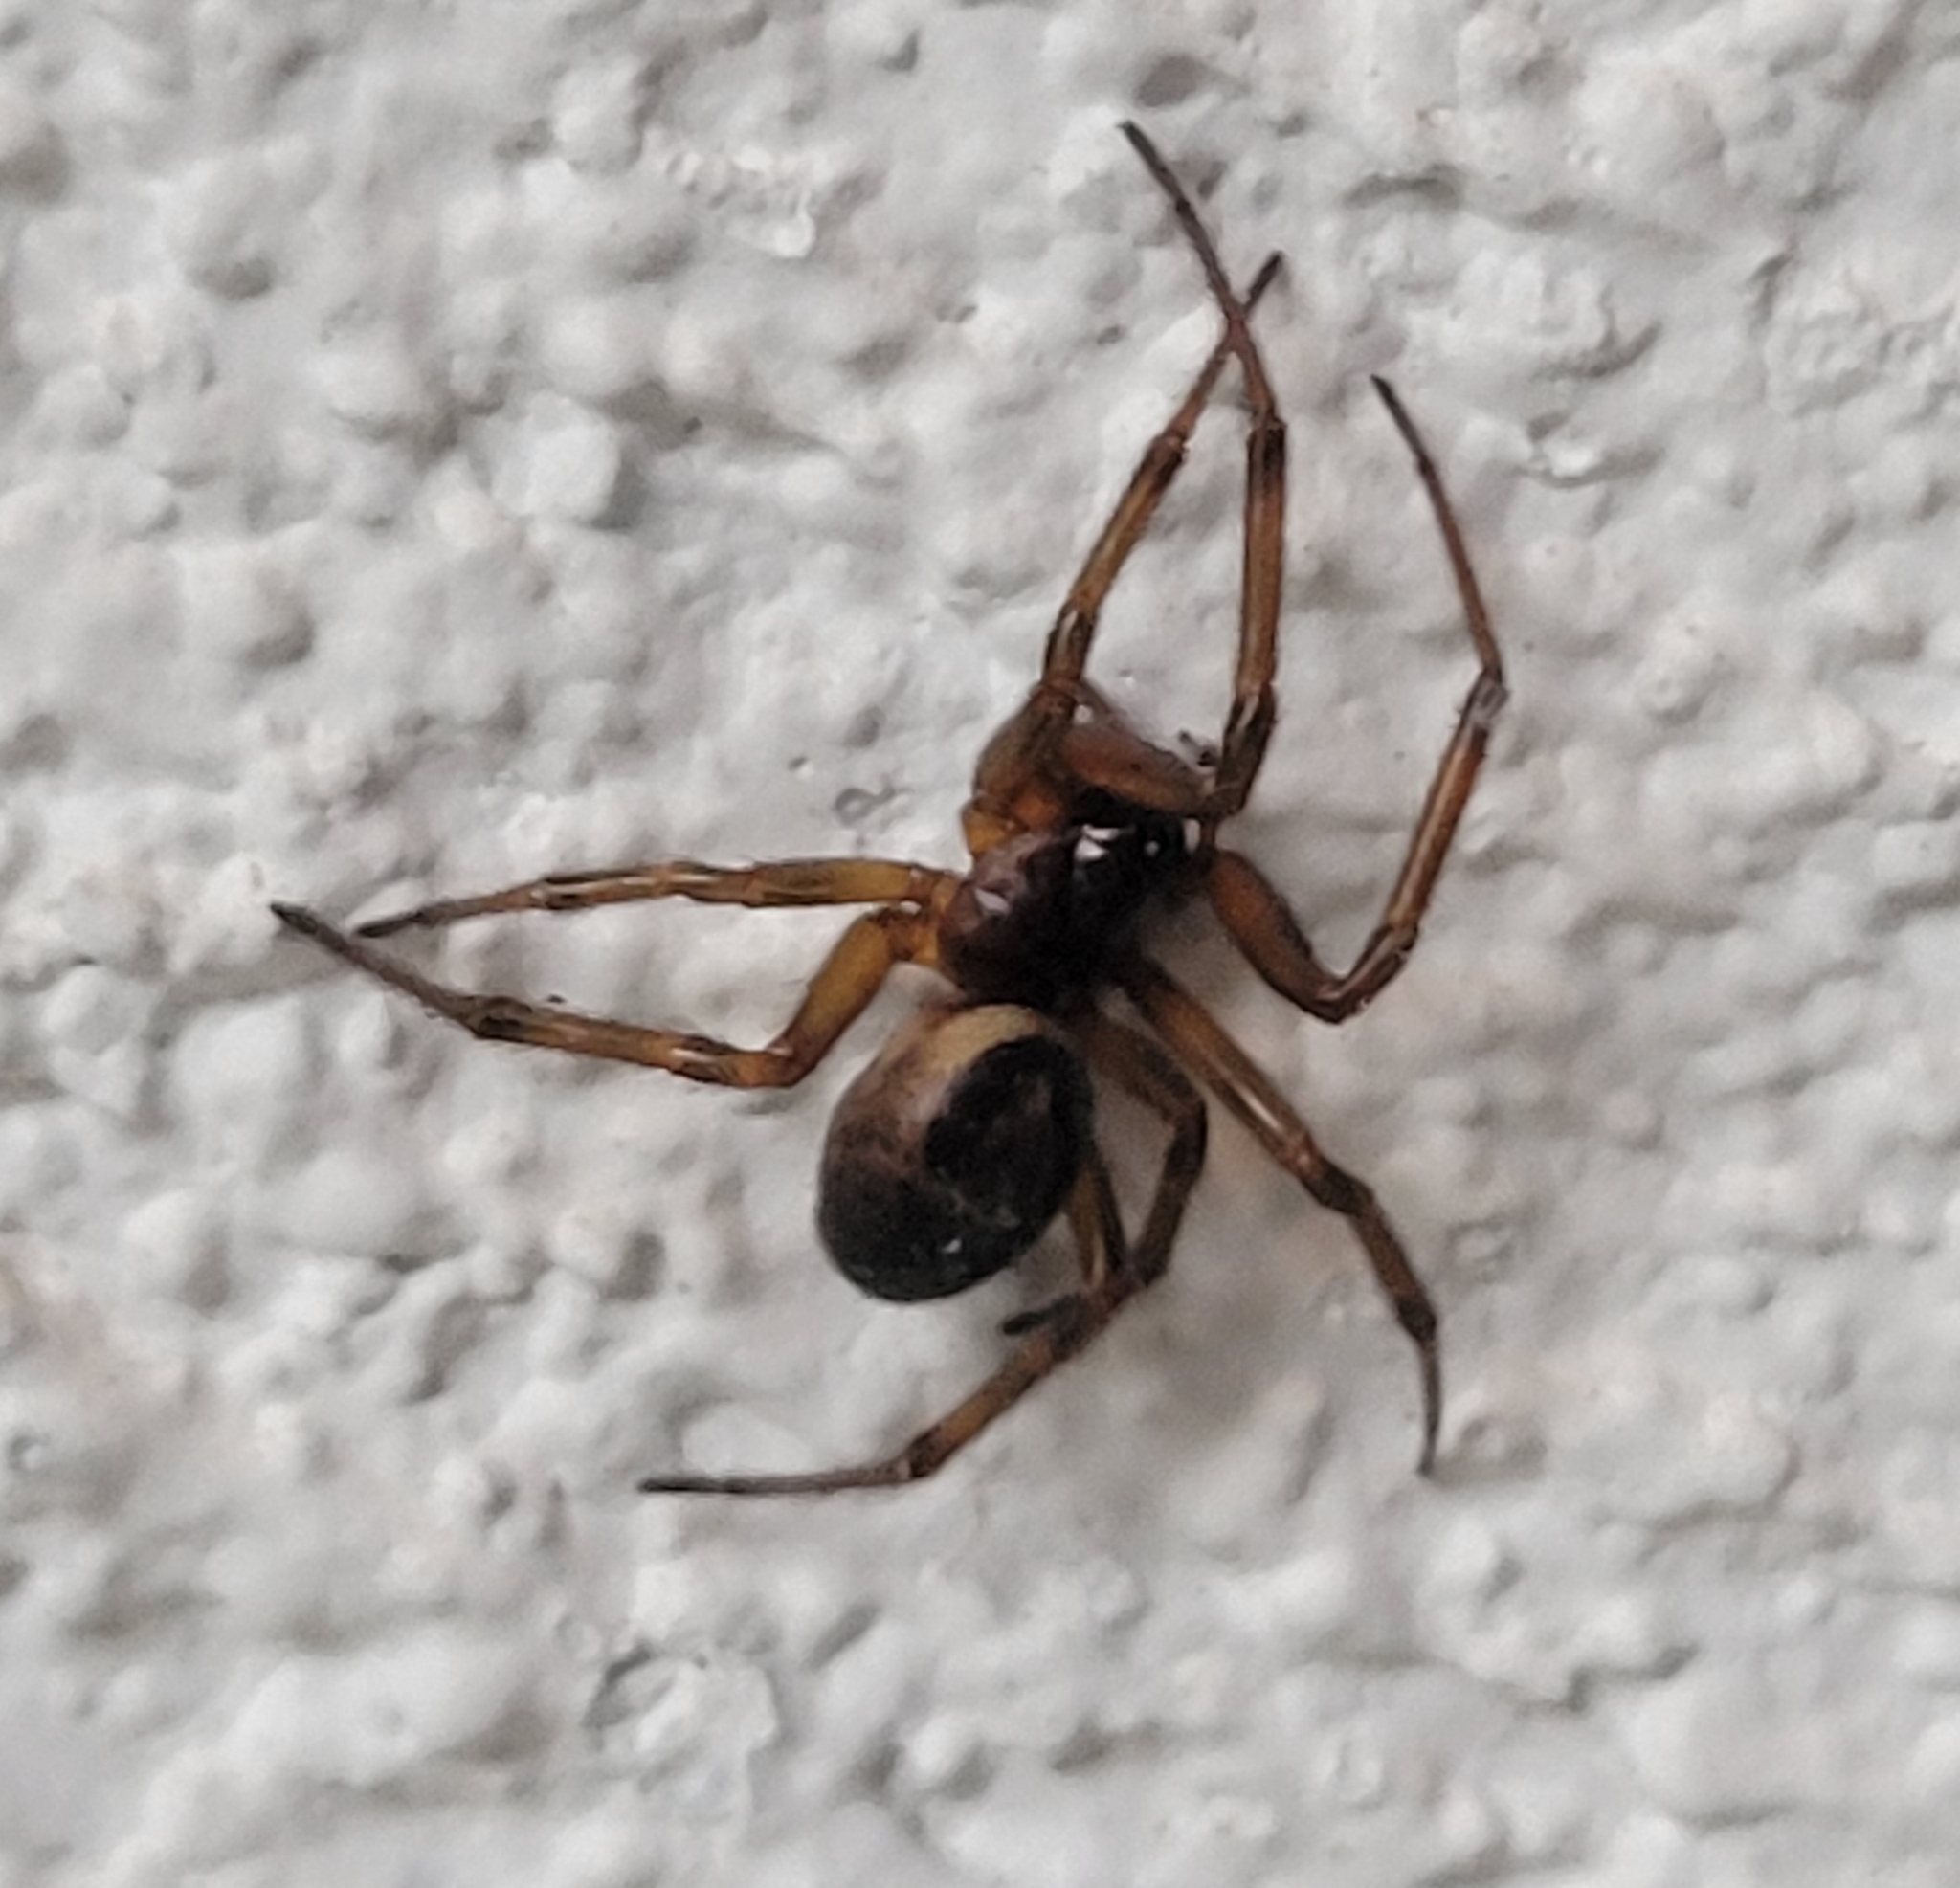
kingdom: Animalia
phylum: Arthropoda
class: Arachnida
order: Araneae
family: Theridiidae
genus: Steatoda
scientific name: Steatoda nobilis
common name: Cobweb weaver
